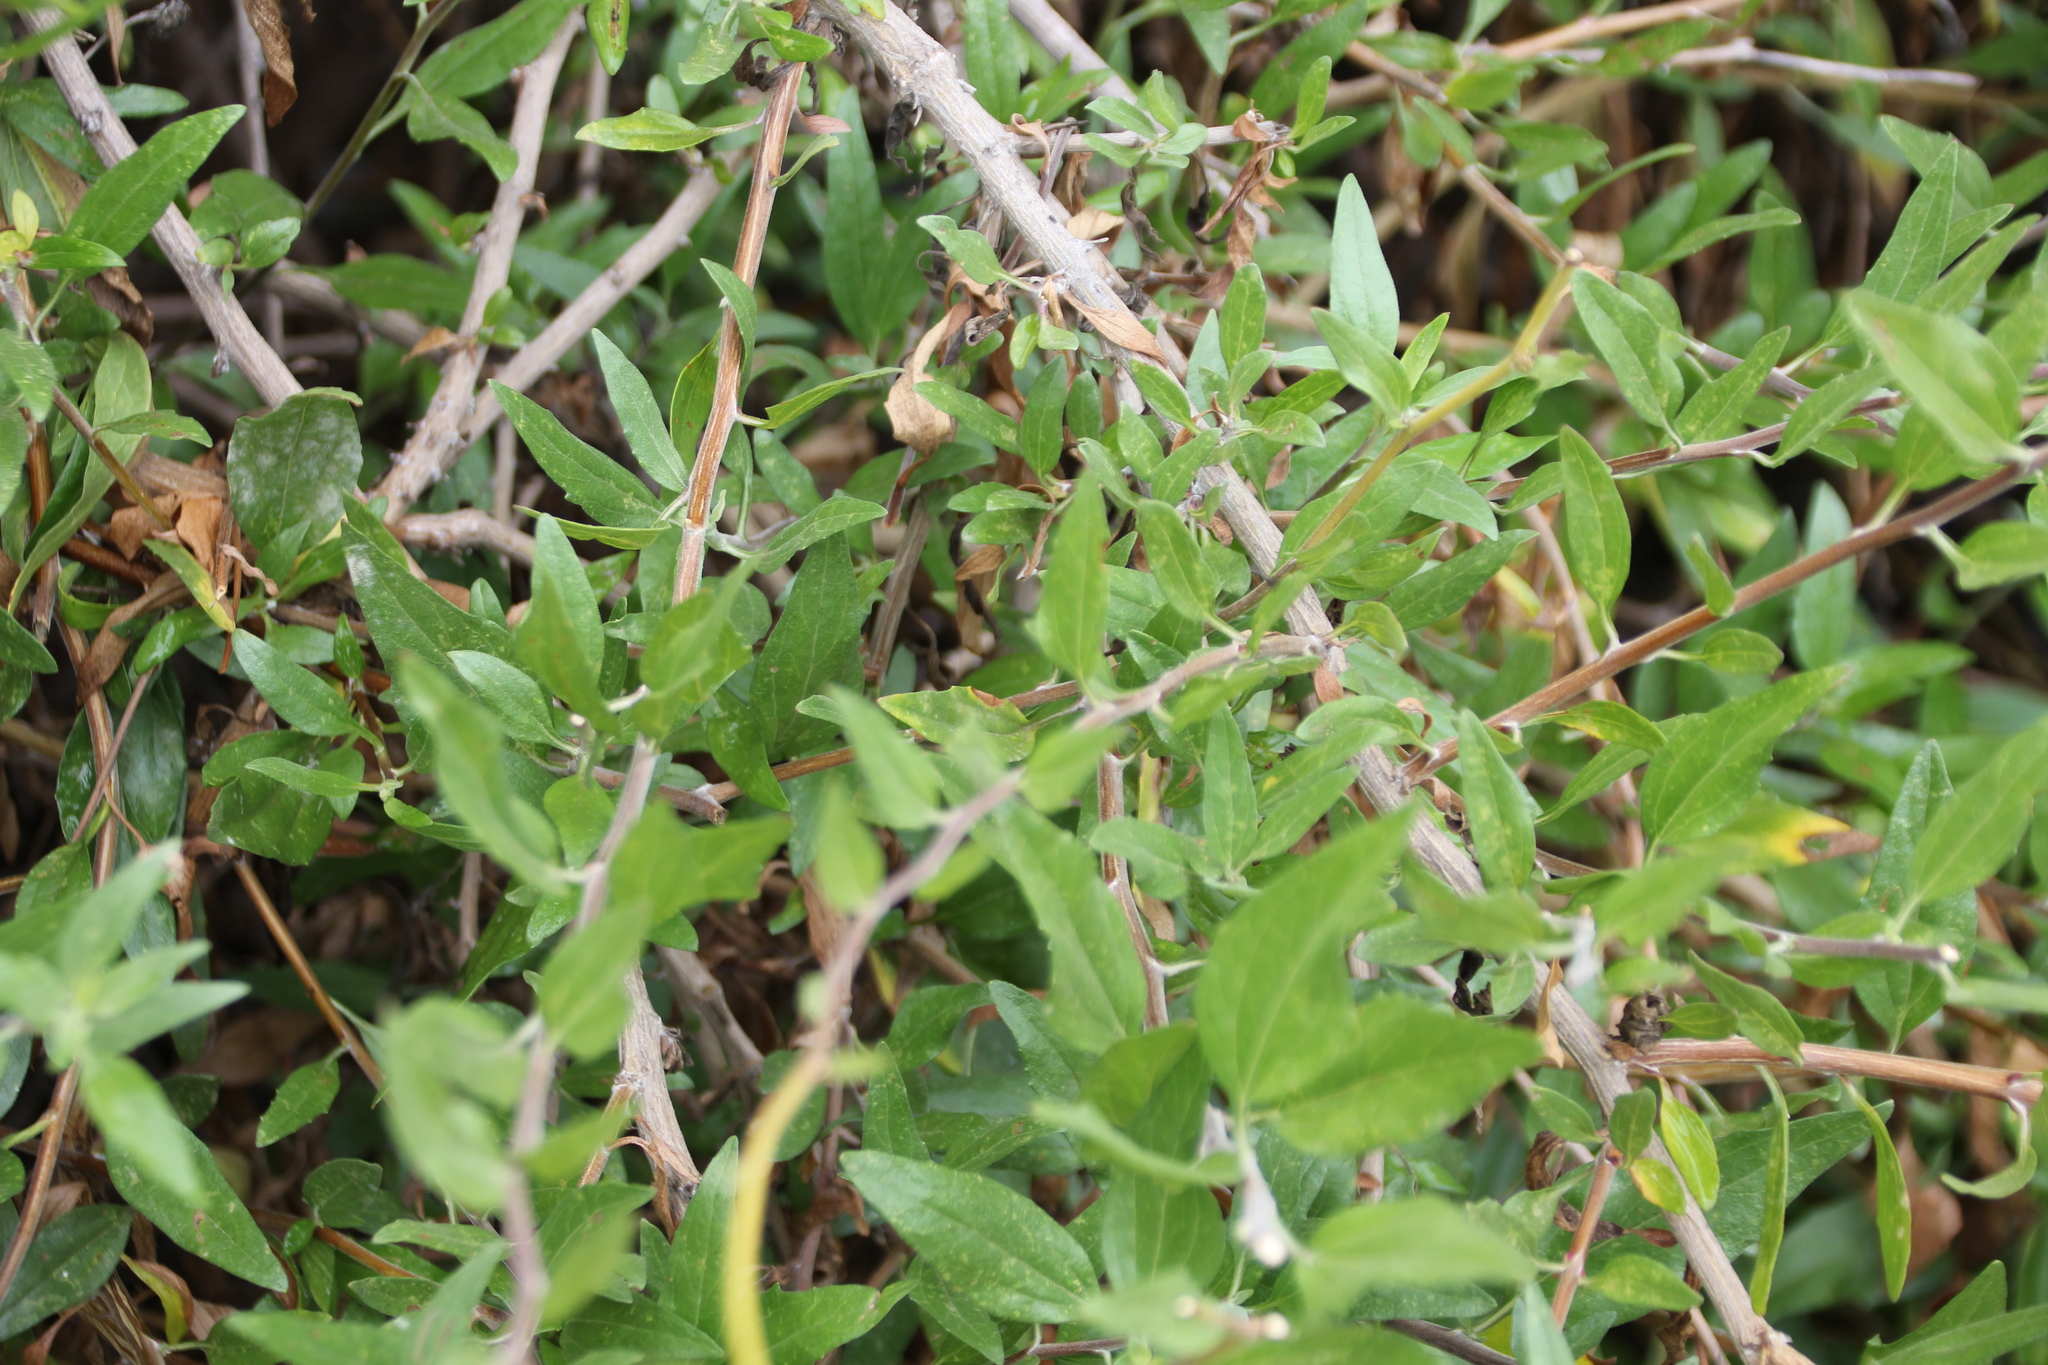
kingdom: Plantae
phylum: Tracheophyta
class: Magnoliopsida
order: Asterales
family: Asteraceae
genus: Encelia
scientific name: Encelia californica
